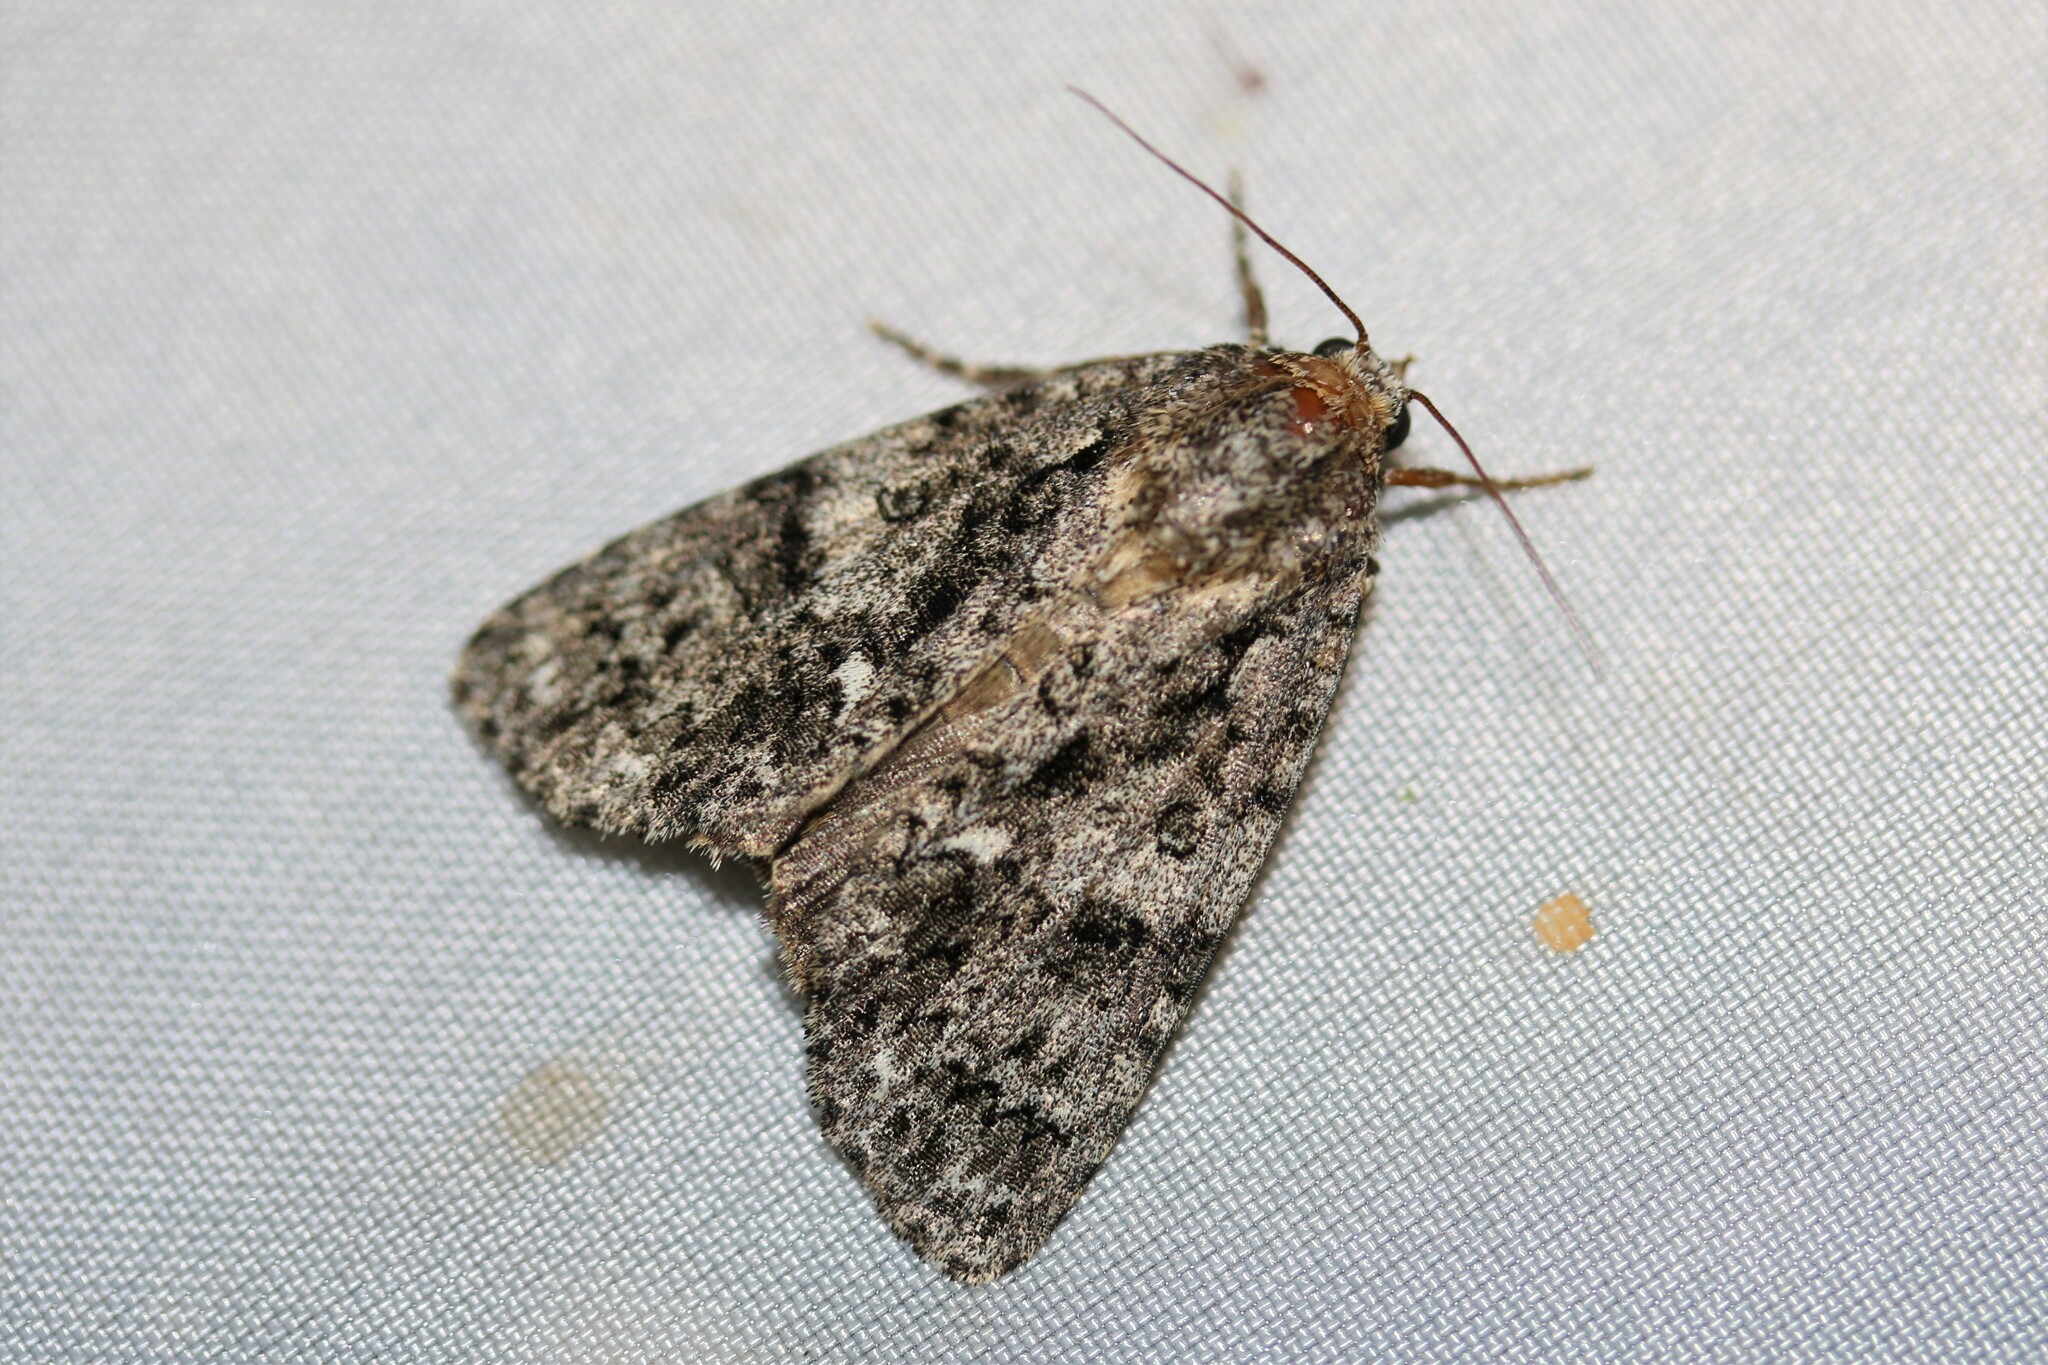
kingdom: Animalia
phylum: Arthropoda
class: Insecta
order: Lepidoptera
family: Noctuidae
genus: Acronicta
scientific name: Acronicta rumicis
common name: Knot grass
